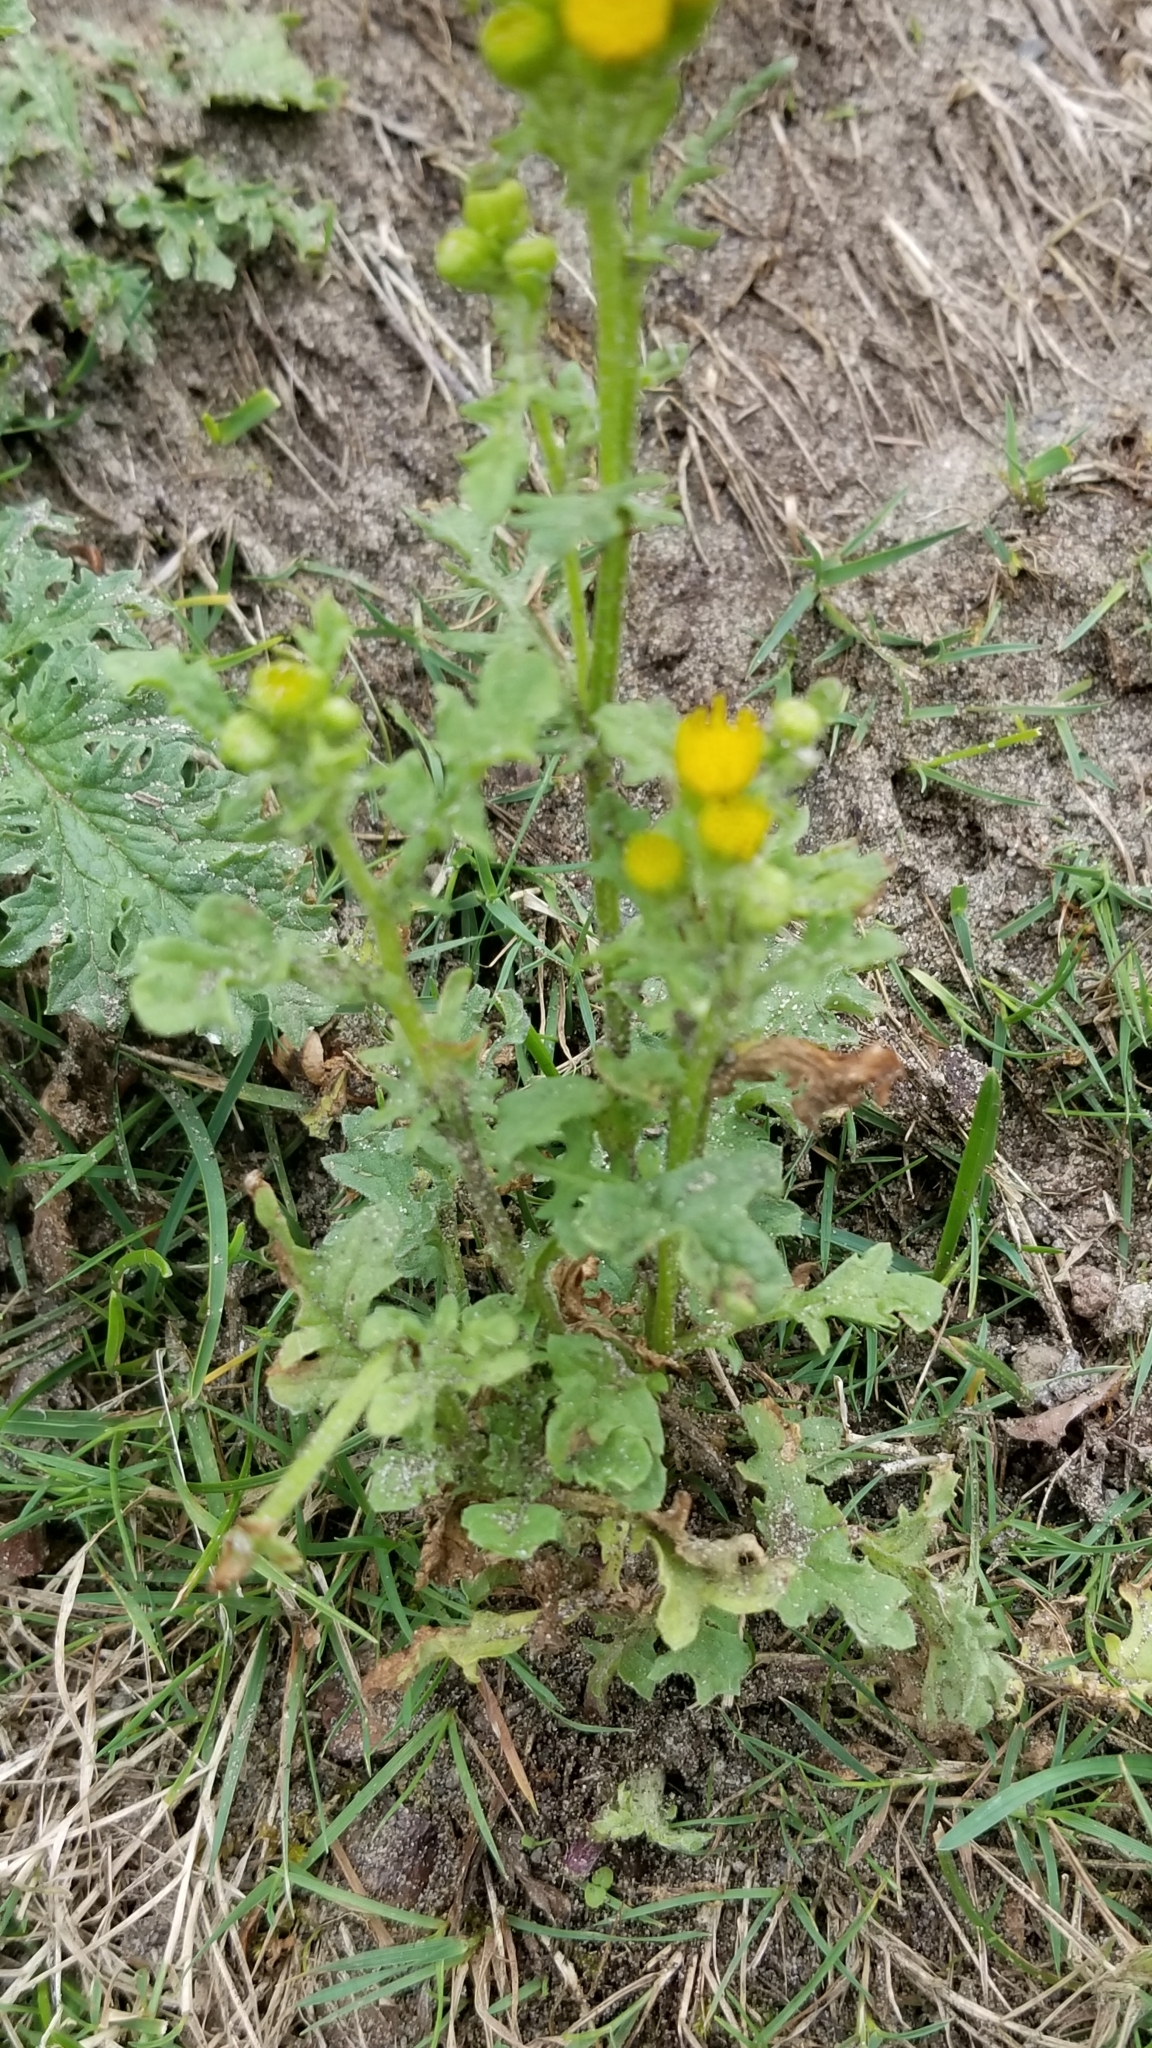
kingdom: Plantae
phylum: Tracheophyta
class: Magnoliopsida
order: Asterales
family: Asteraceae
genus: Jacobaea
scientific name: Jacobaea vulgaris
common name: Stinking willie
